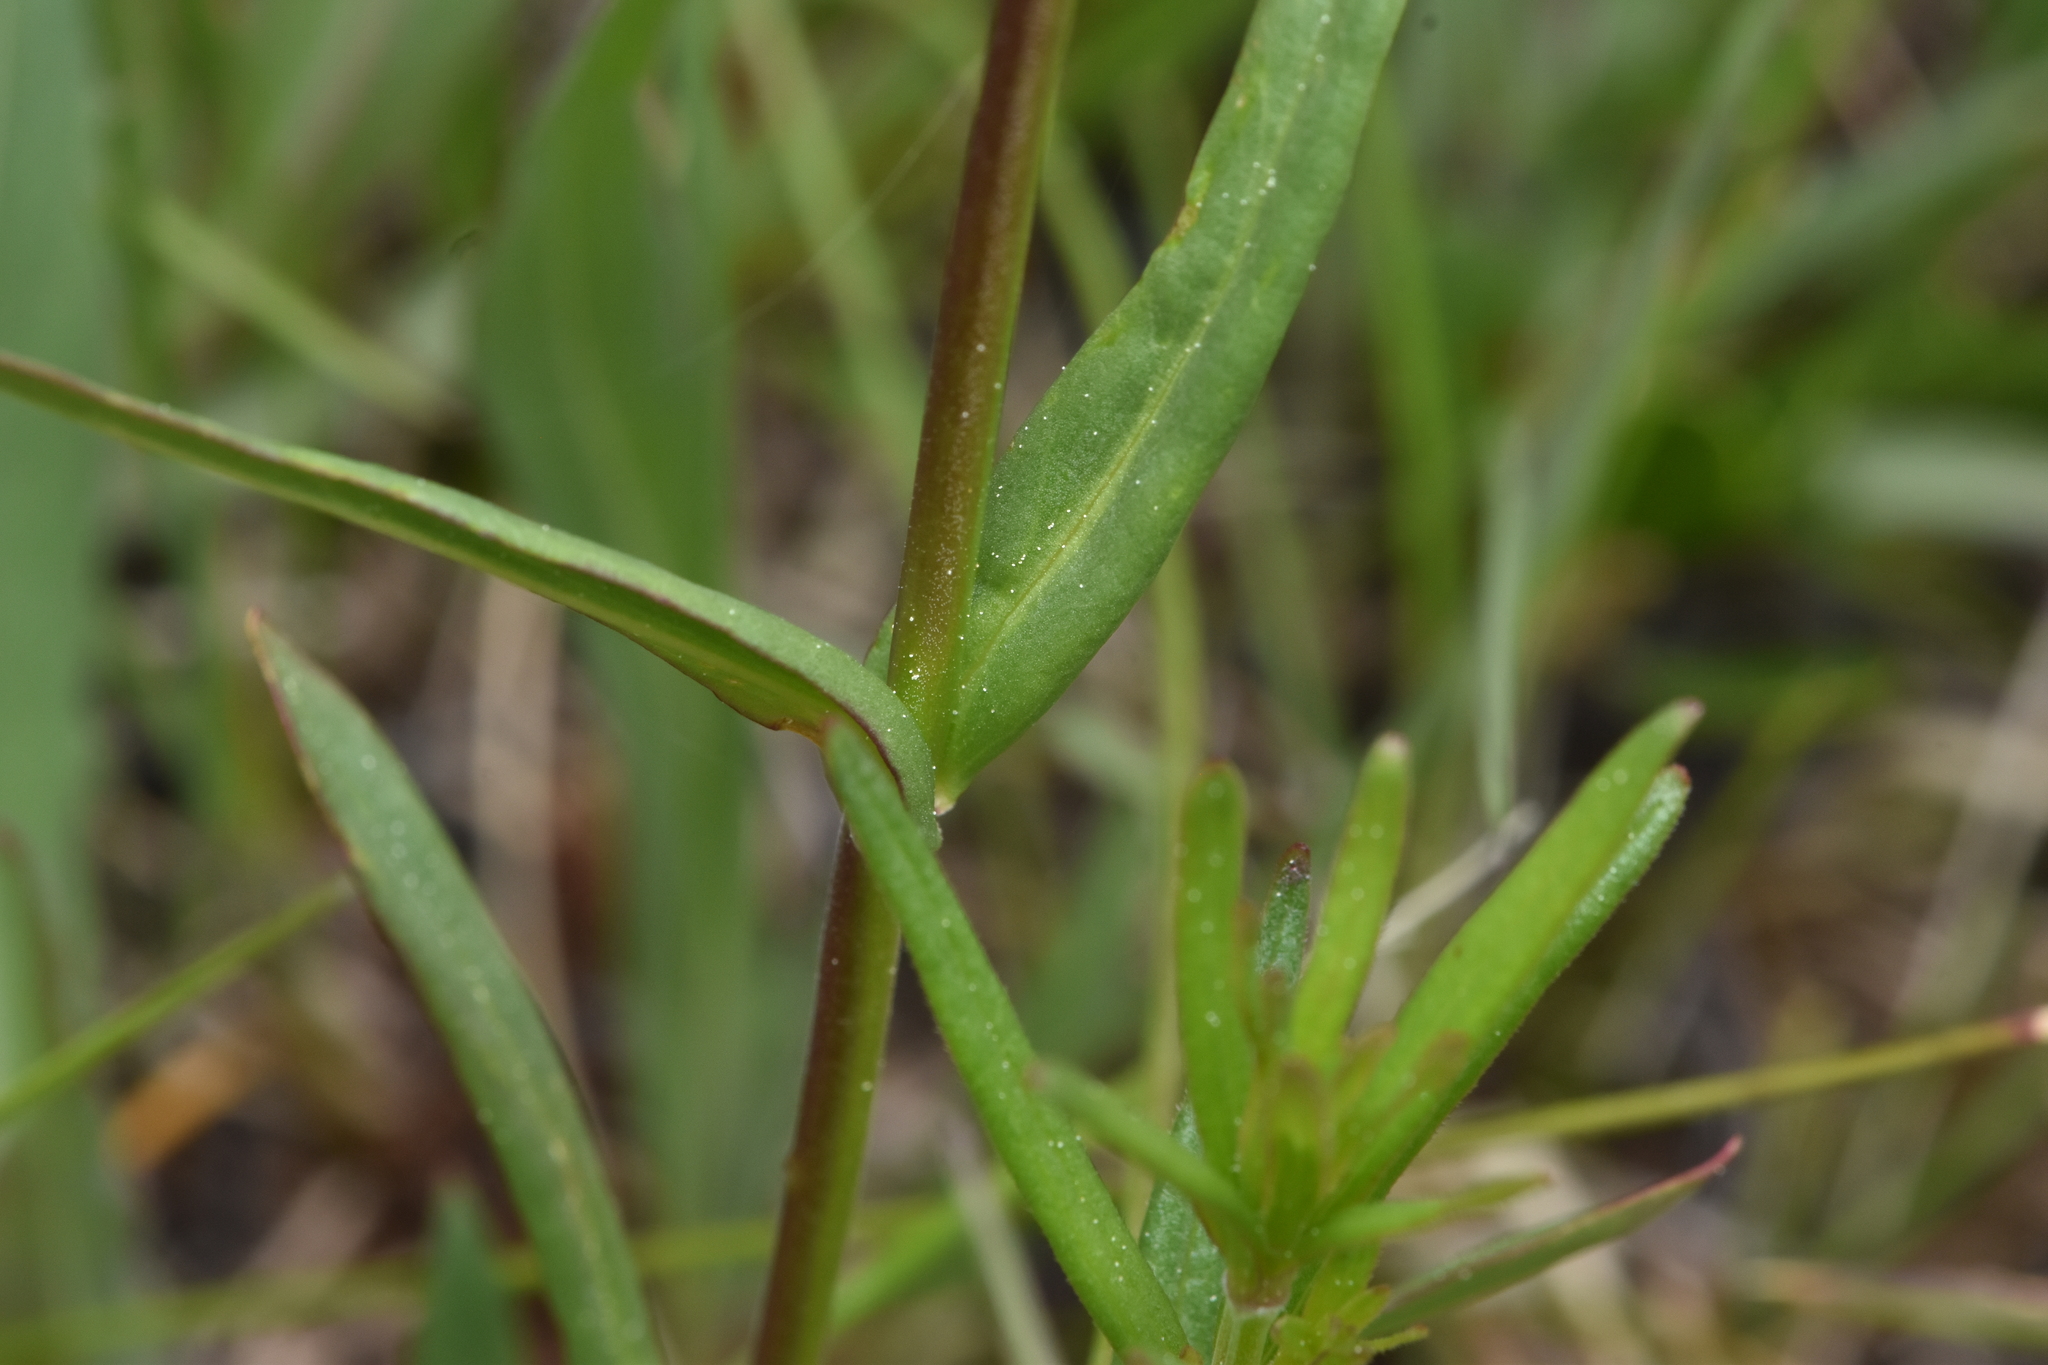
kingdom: Plantae
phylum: Tracheophyta
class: Magnoliopsida
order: Lamiales
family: Plantaginaceae
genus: Penstemon
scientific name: Penstemon procerus
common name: Small-flower penstemon
